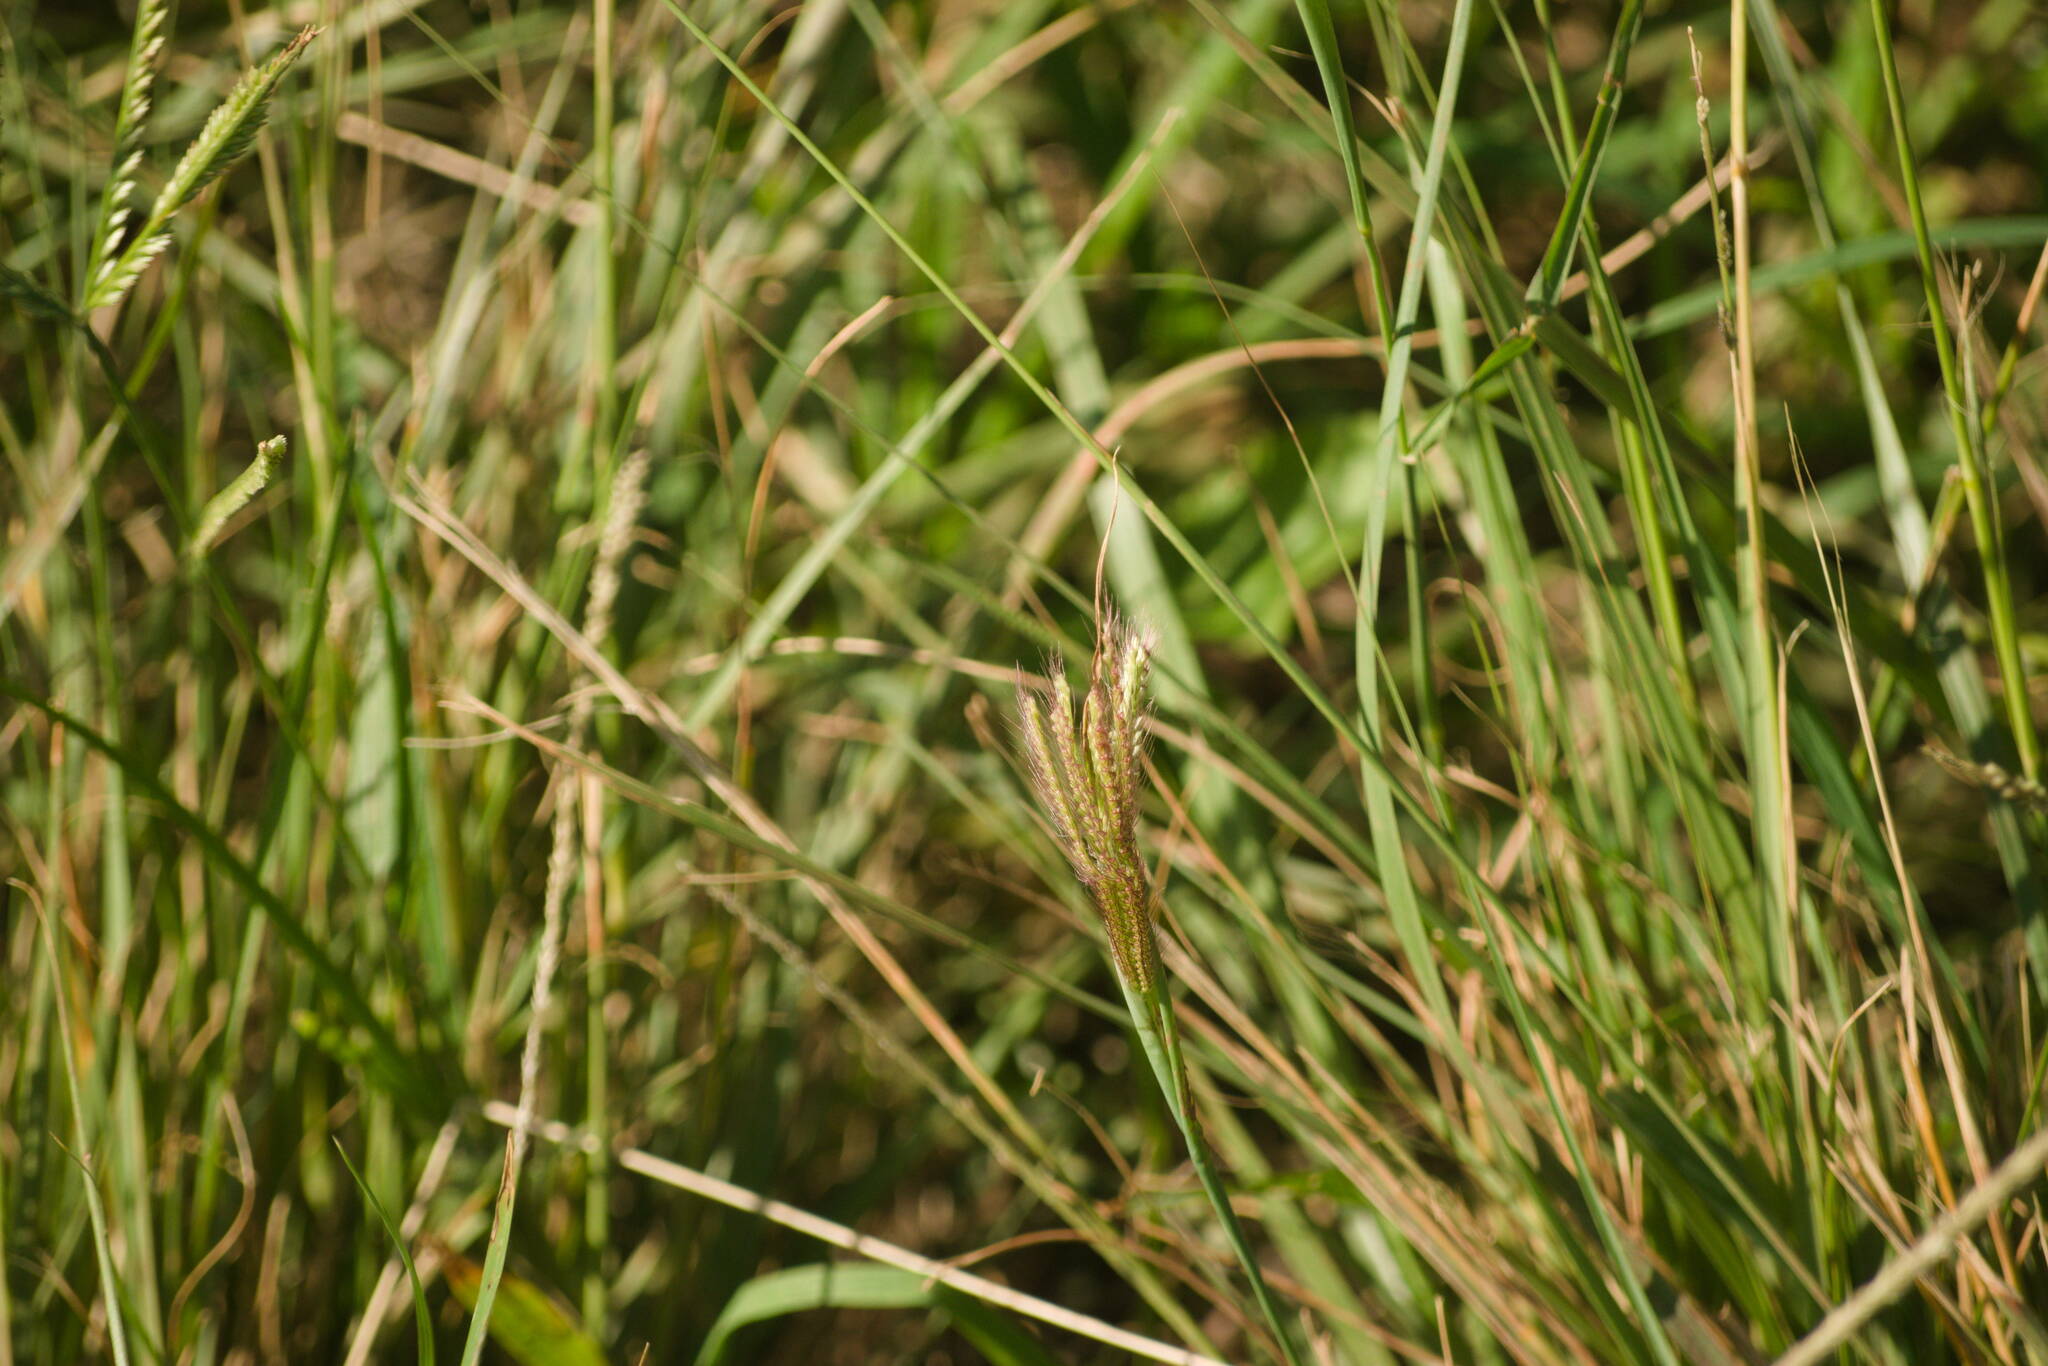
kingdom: Plantae
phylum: Tracheophyta
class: Liliopsida
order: Poales
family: Poaceae
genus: Chloris
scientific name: Chloris barbata
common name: Swollen fingergrass
